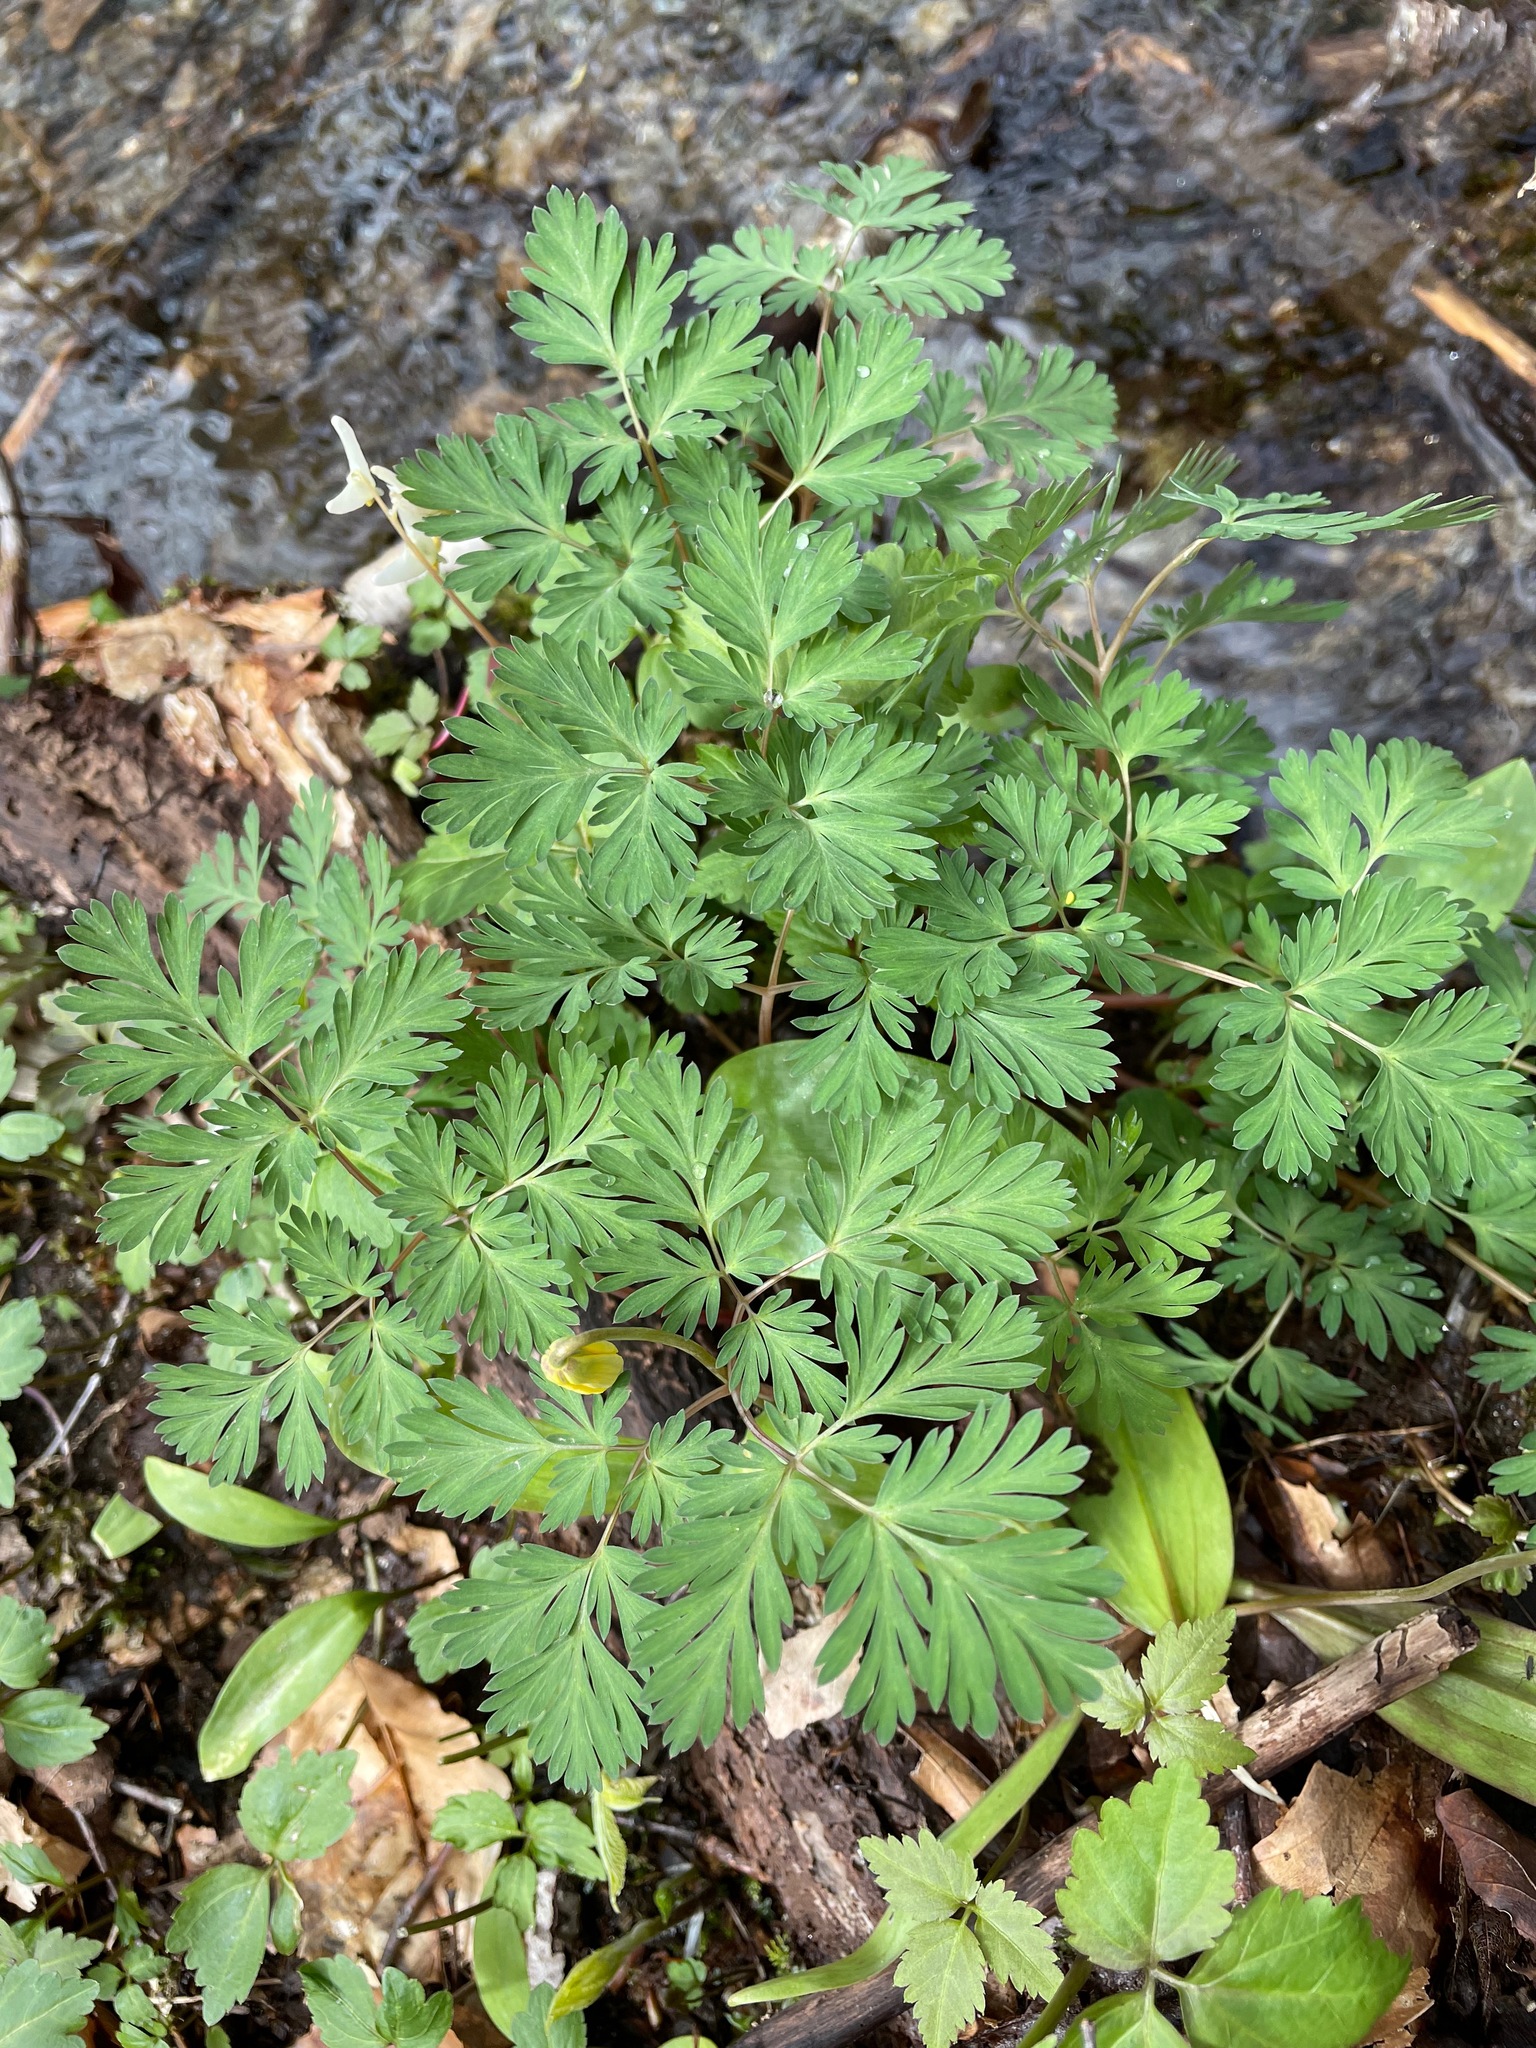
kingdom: Plantae
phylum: Tracheophyta
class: Magnoliopsida
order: Ranunculales
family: Papaveraceae
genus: Dicentra
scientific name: Dicentra cucullaria
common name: Dutchman's breeches
